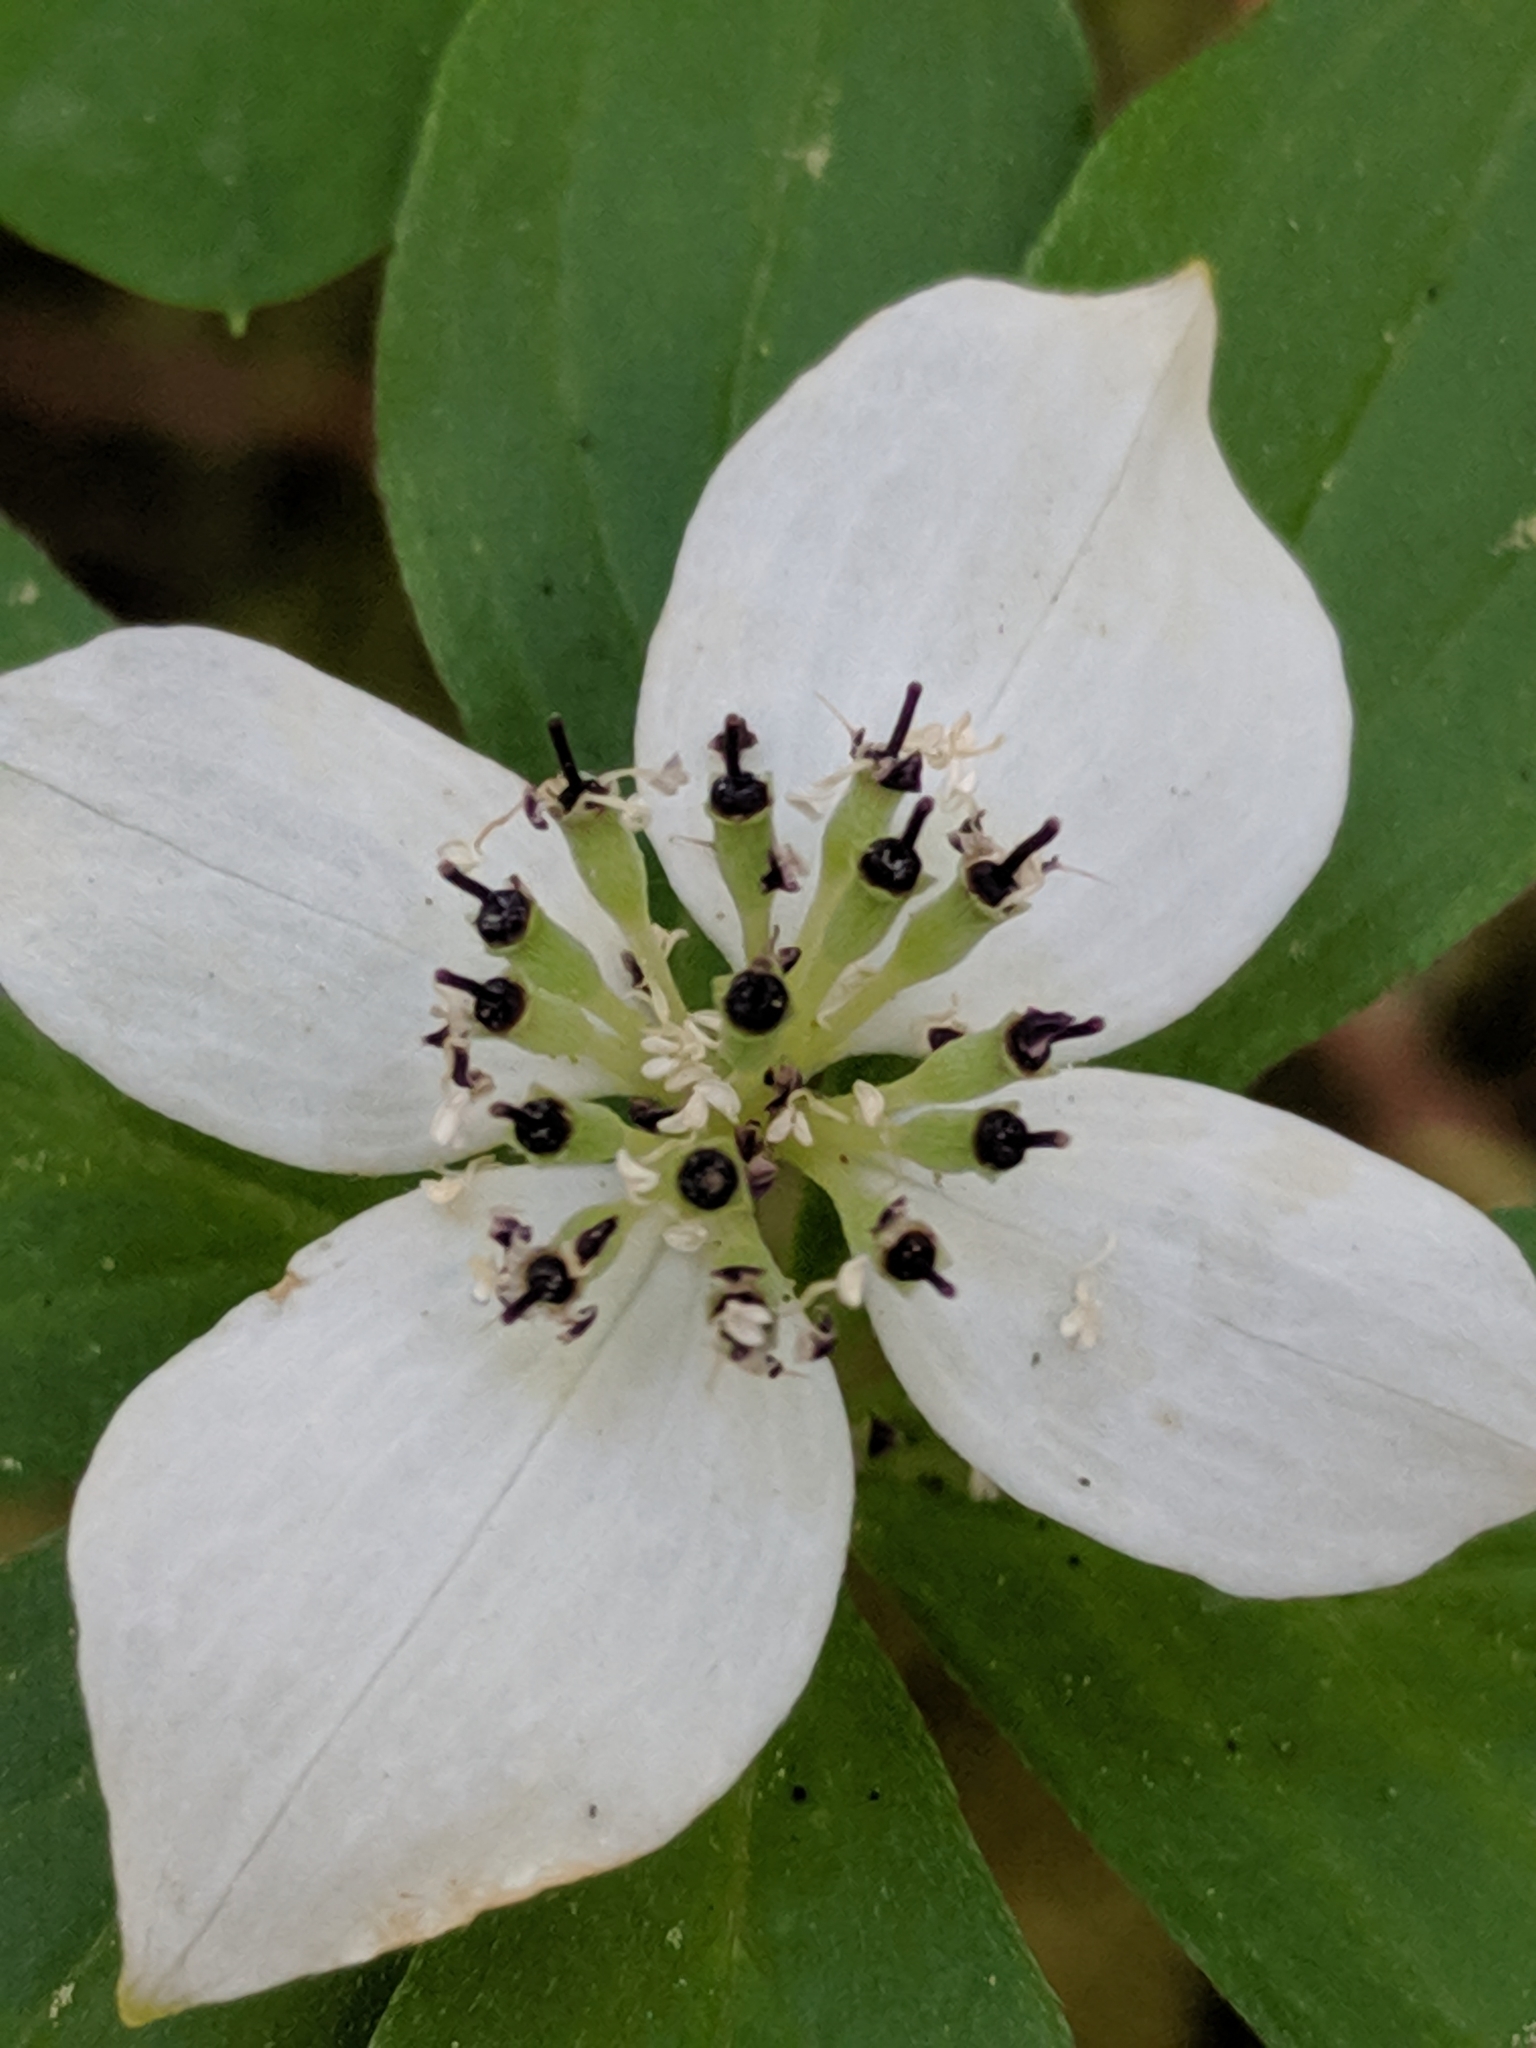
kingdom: Plantae
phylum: Tracheophyta
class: Magnoliopsida
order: Cornales
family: Cornaceae
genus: Cornus
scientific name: Cornus unalaschkensis
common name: Alaska bunchberry
